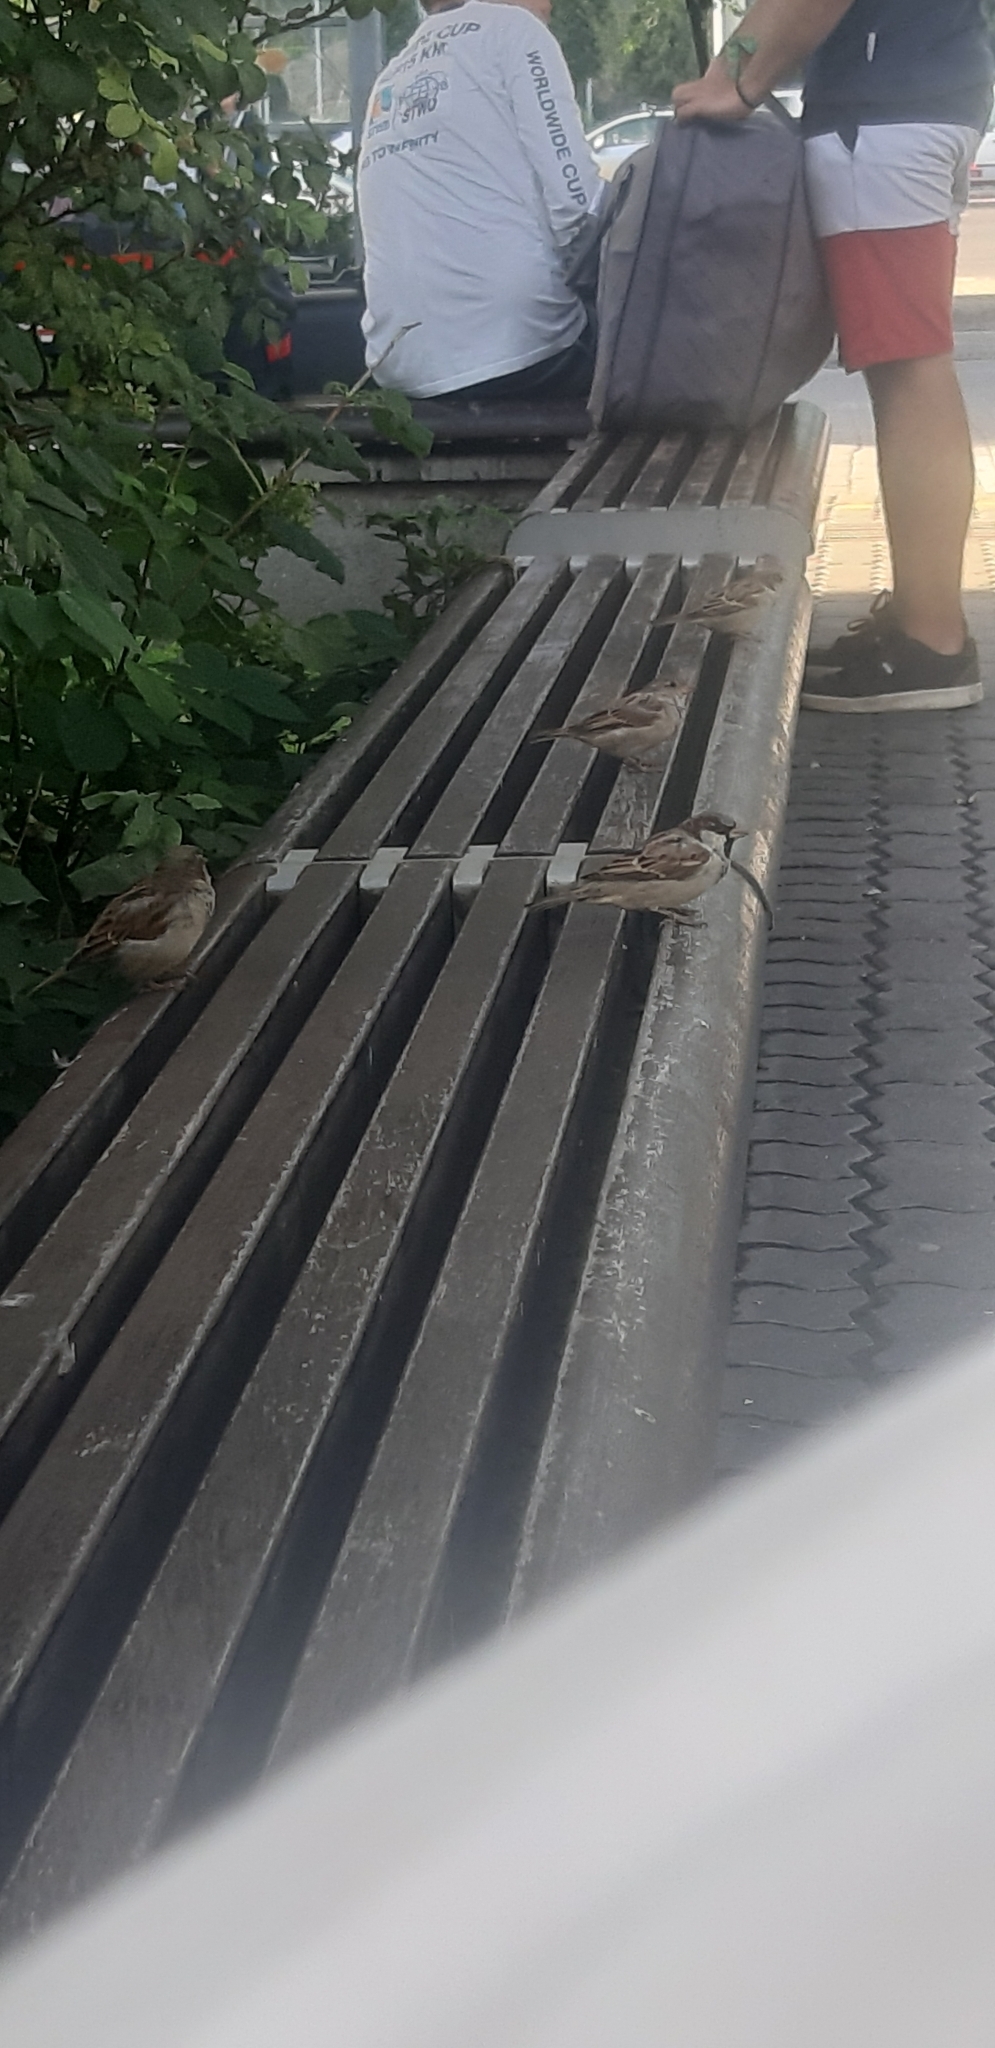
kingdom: Animalia
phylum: Chordata
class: Aves
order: Passeriformes
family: Passeridae
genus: Passer
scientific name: Passer domesticus
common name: House sparrow
